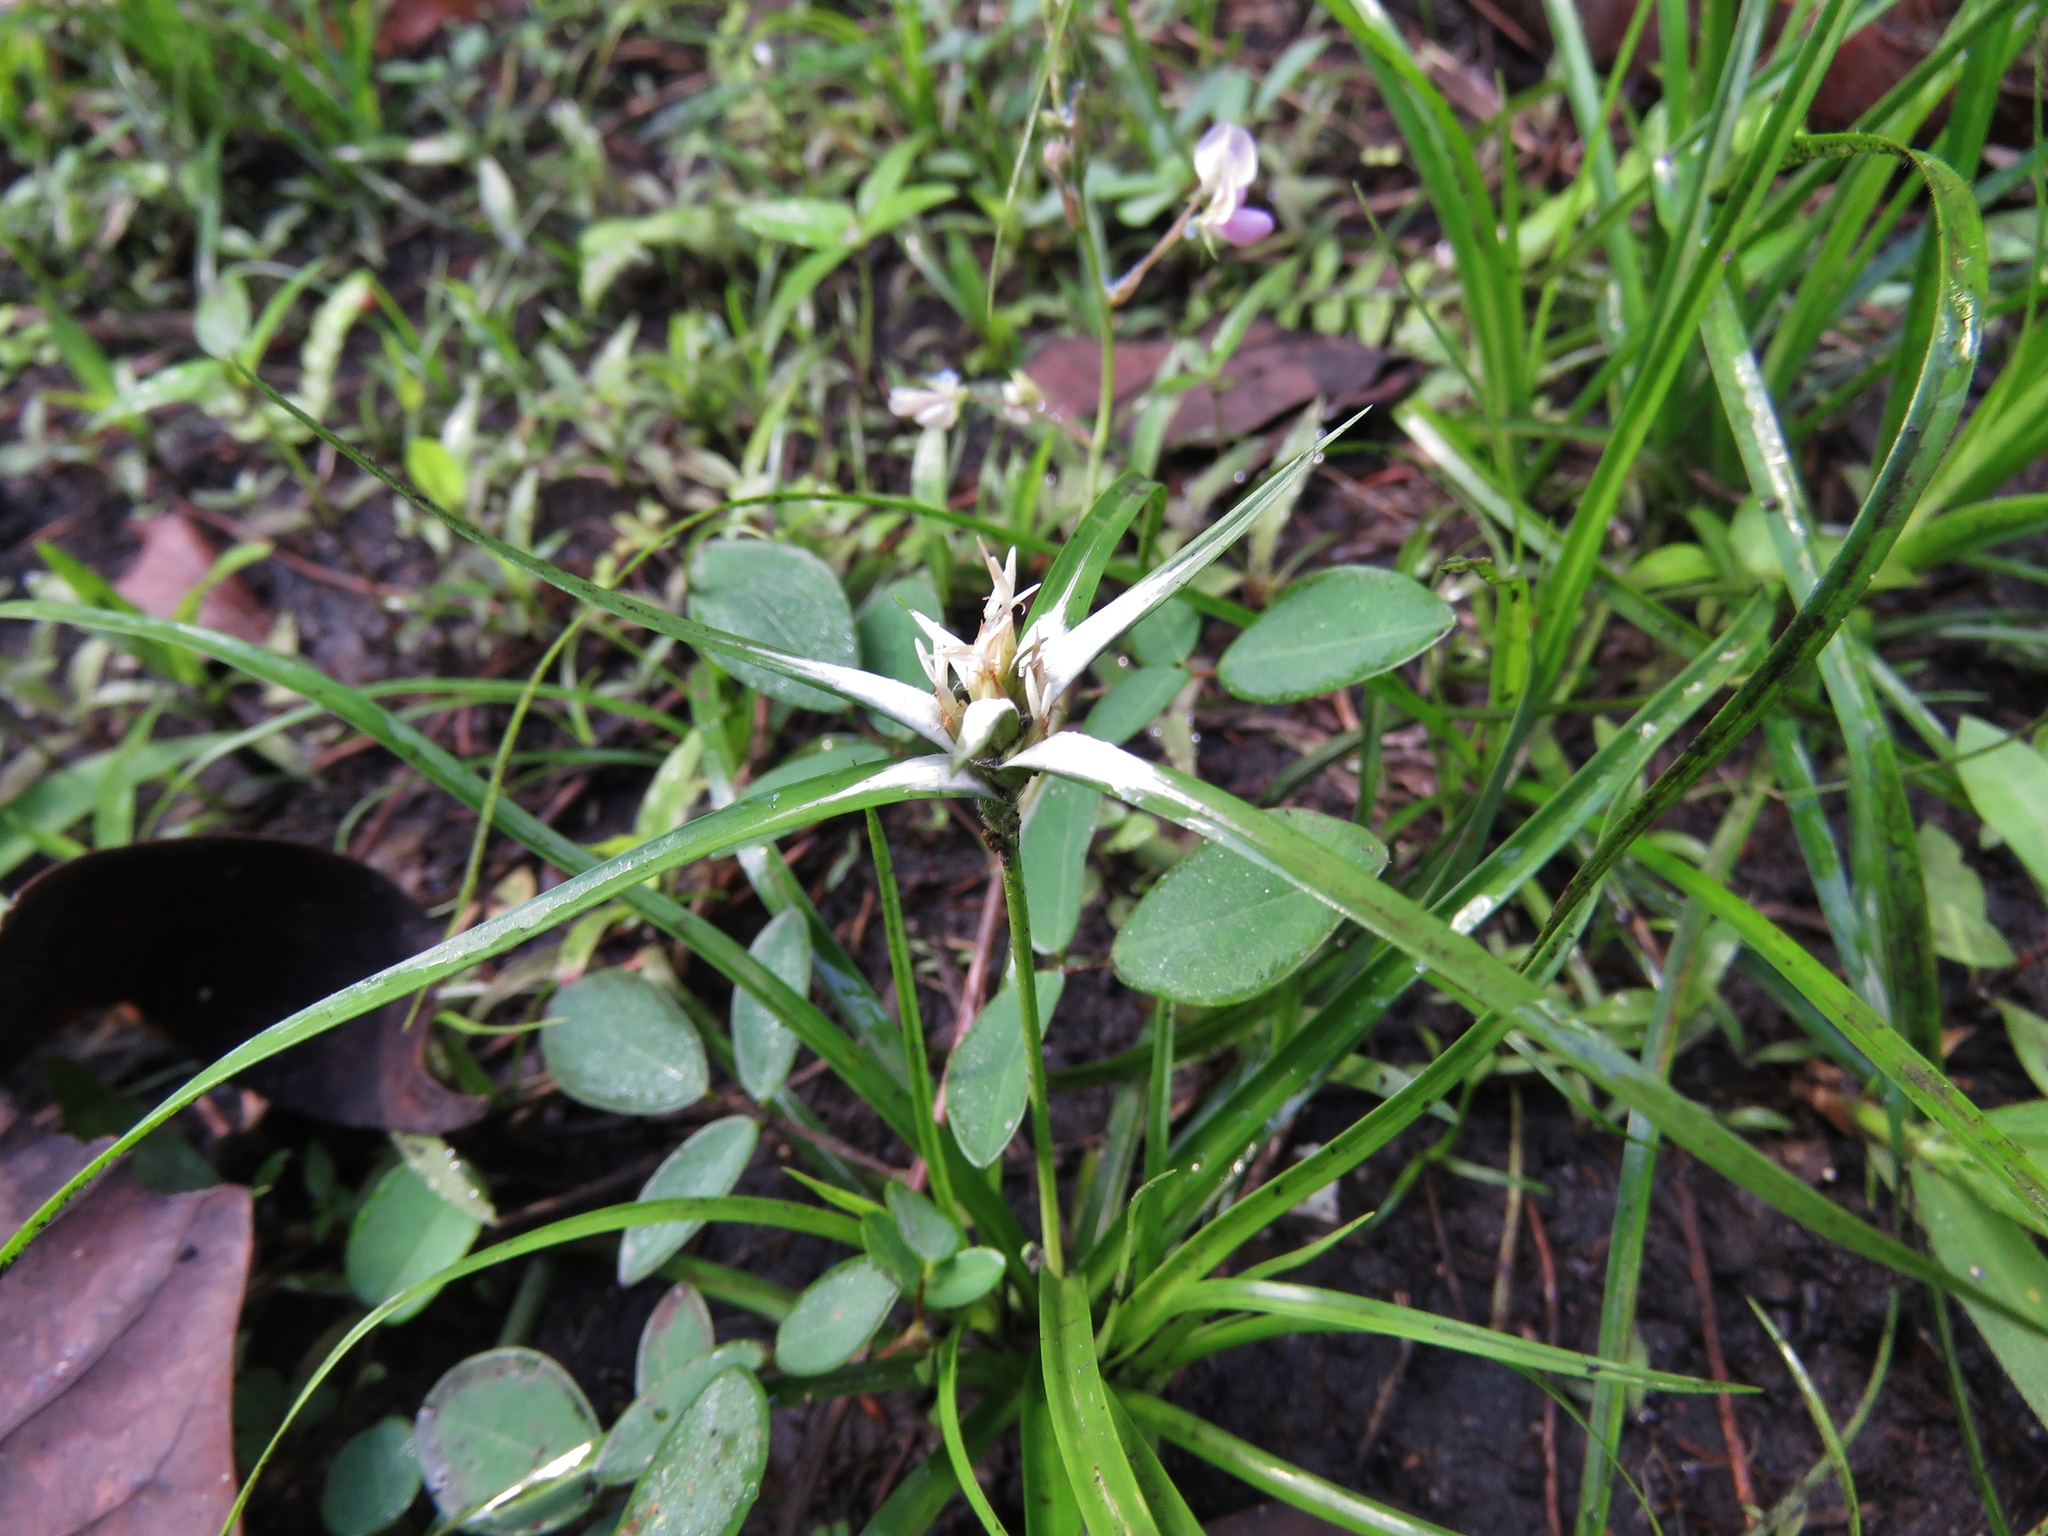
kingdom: Plantae
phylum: Tracheophyta
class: Liliopsida
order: Poales
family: Cyperaceae
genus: Rhynchospora
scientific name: Rhynchospora colorata
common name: Star sedge
